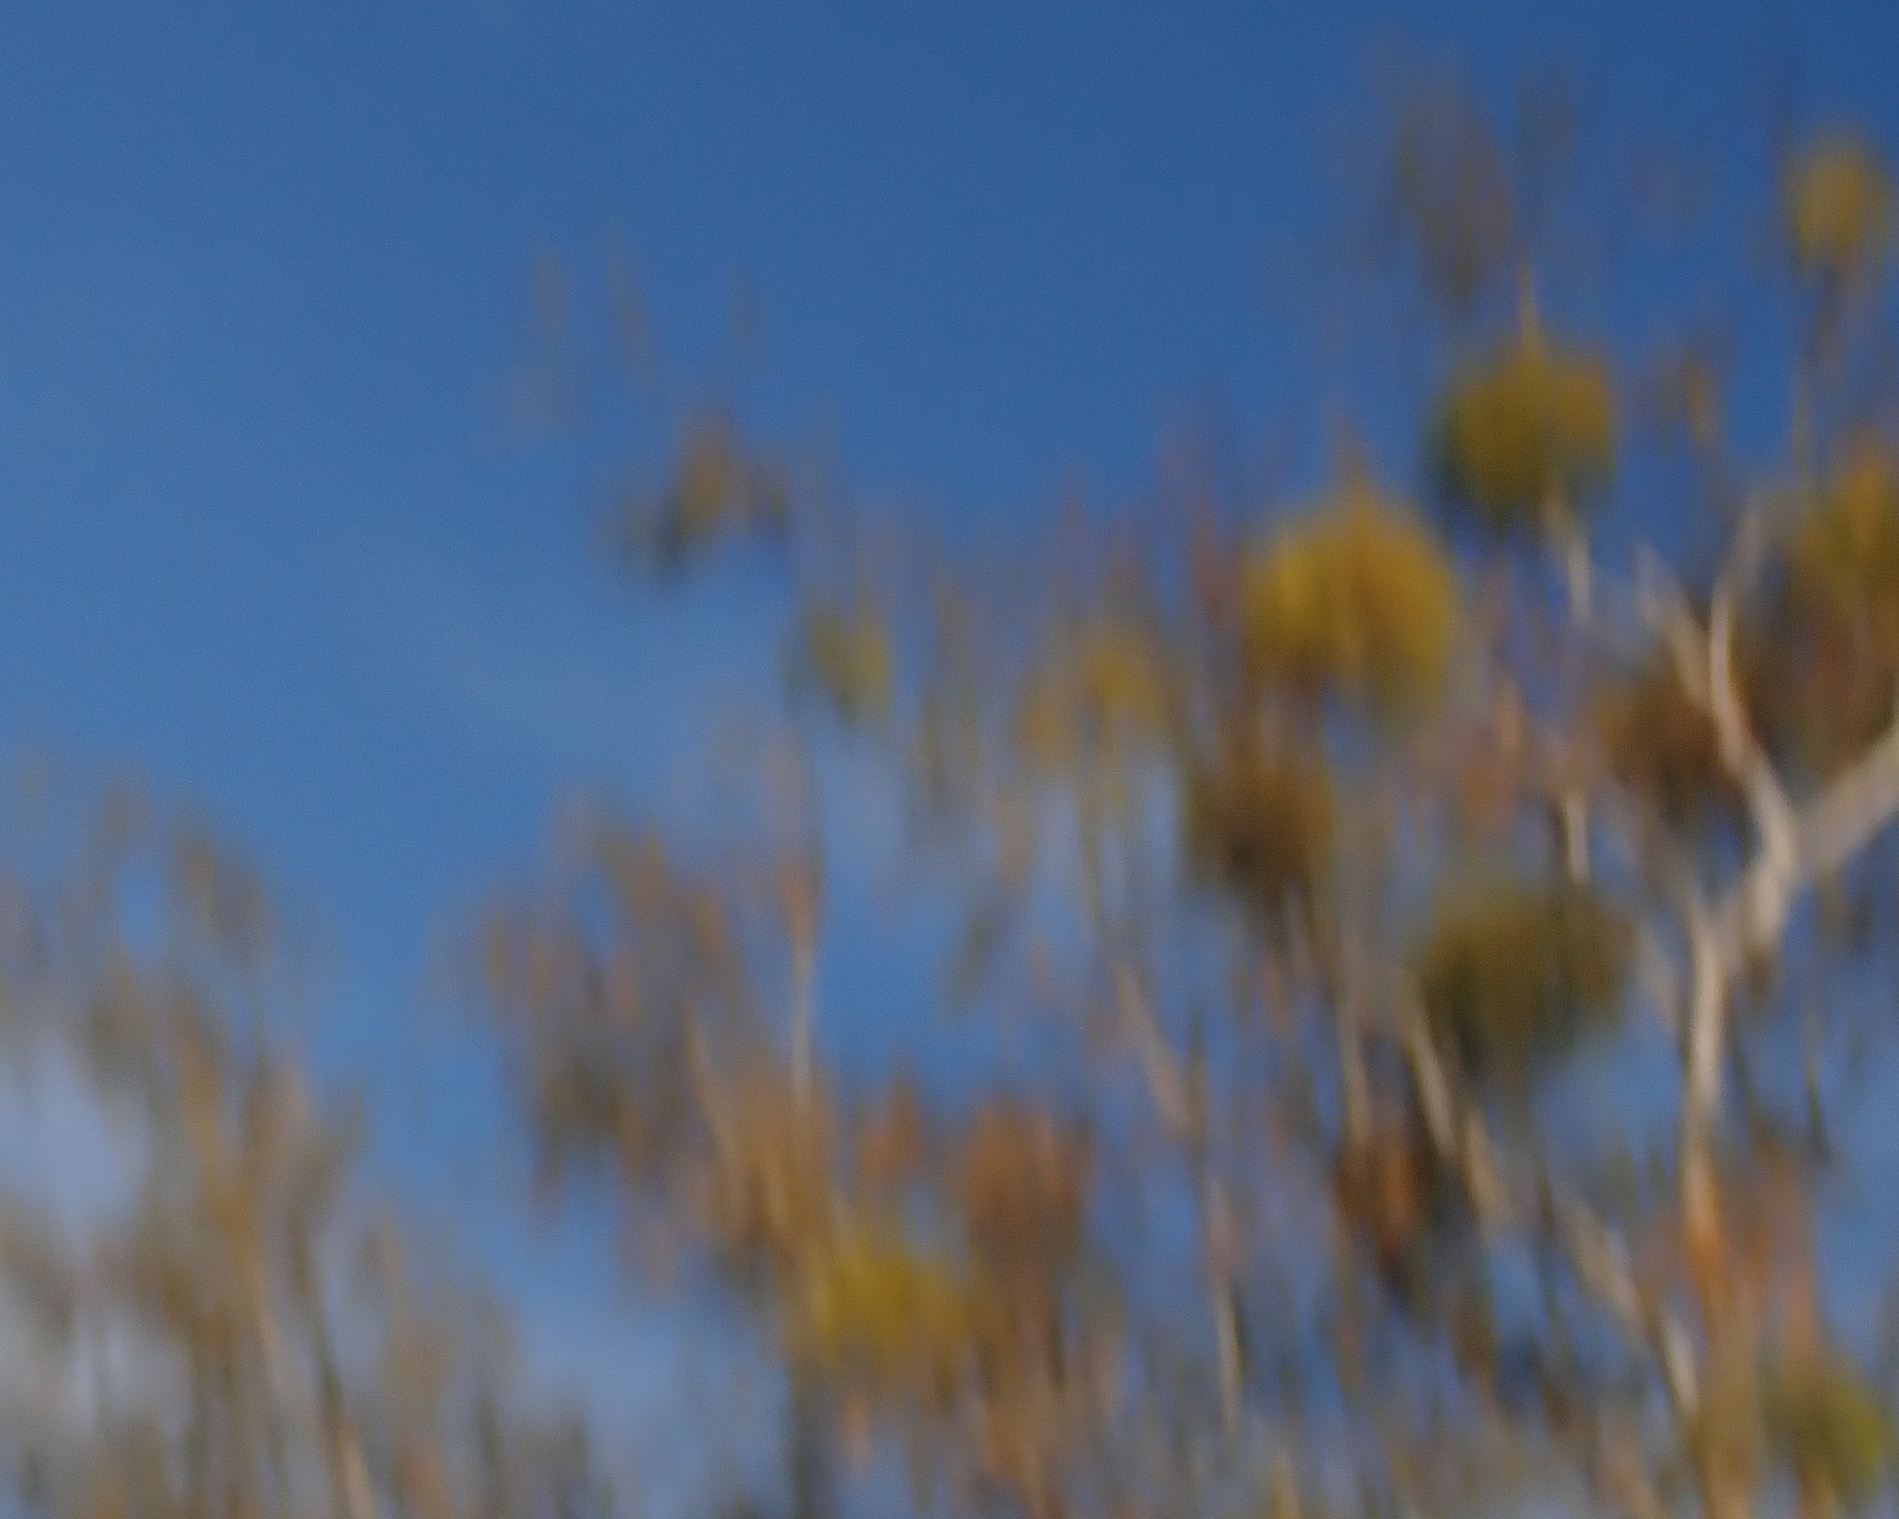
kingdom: Plantae
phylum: Tracheophyta
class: Magnoliopsida
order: Santalales
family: Viscaceae
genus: Viscum
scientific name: Viscum album
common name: Mistletoe
